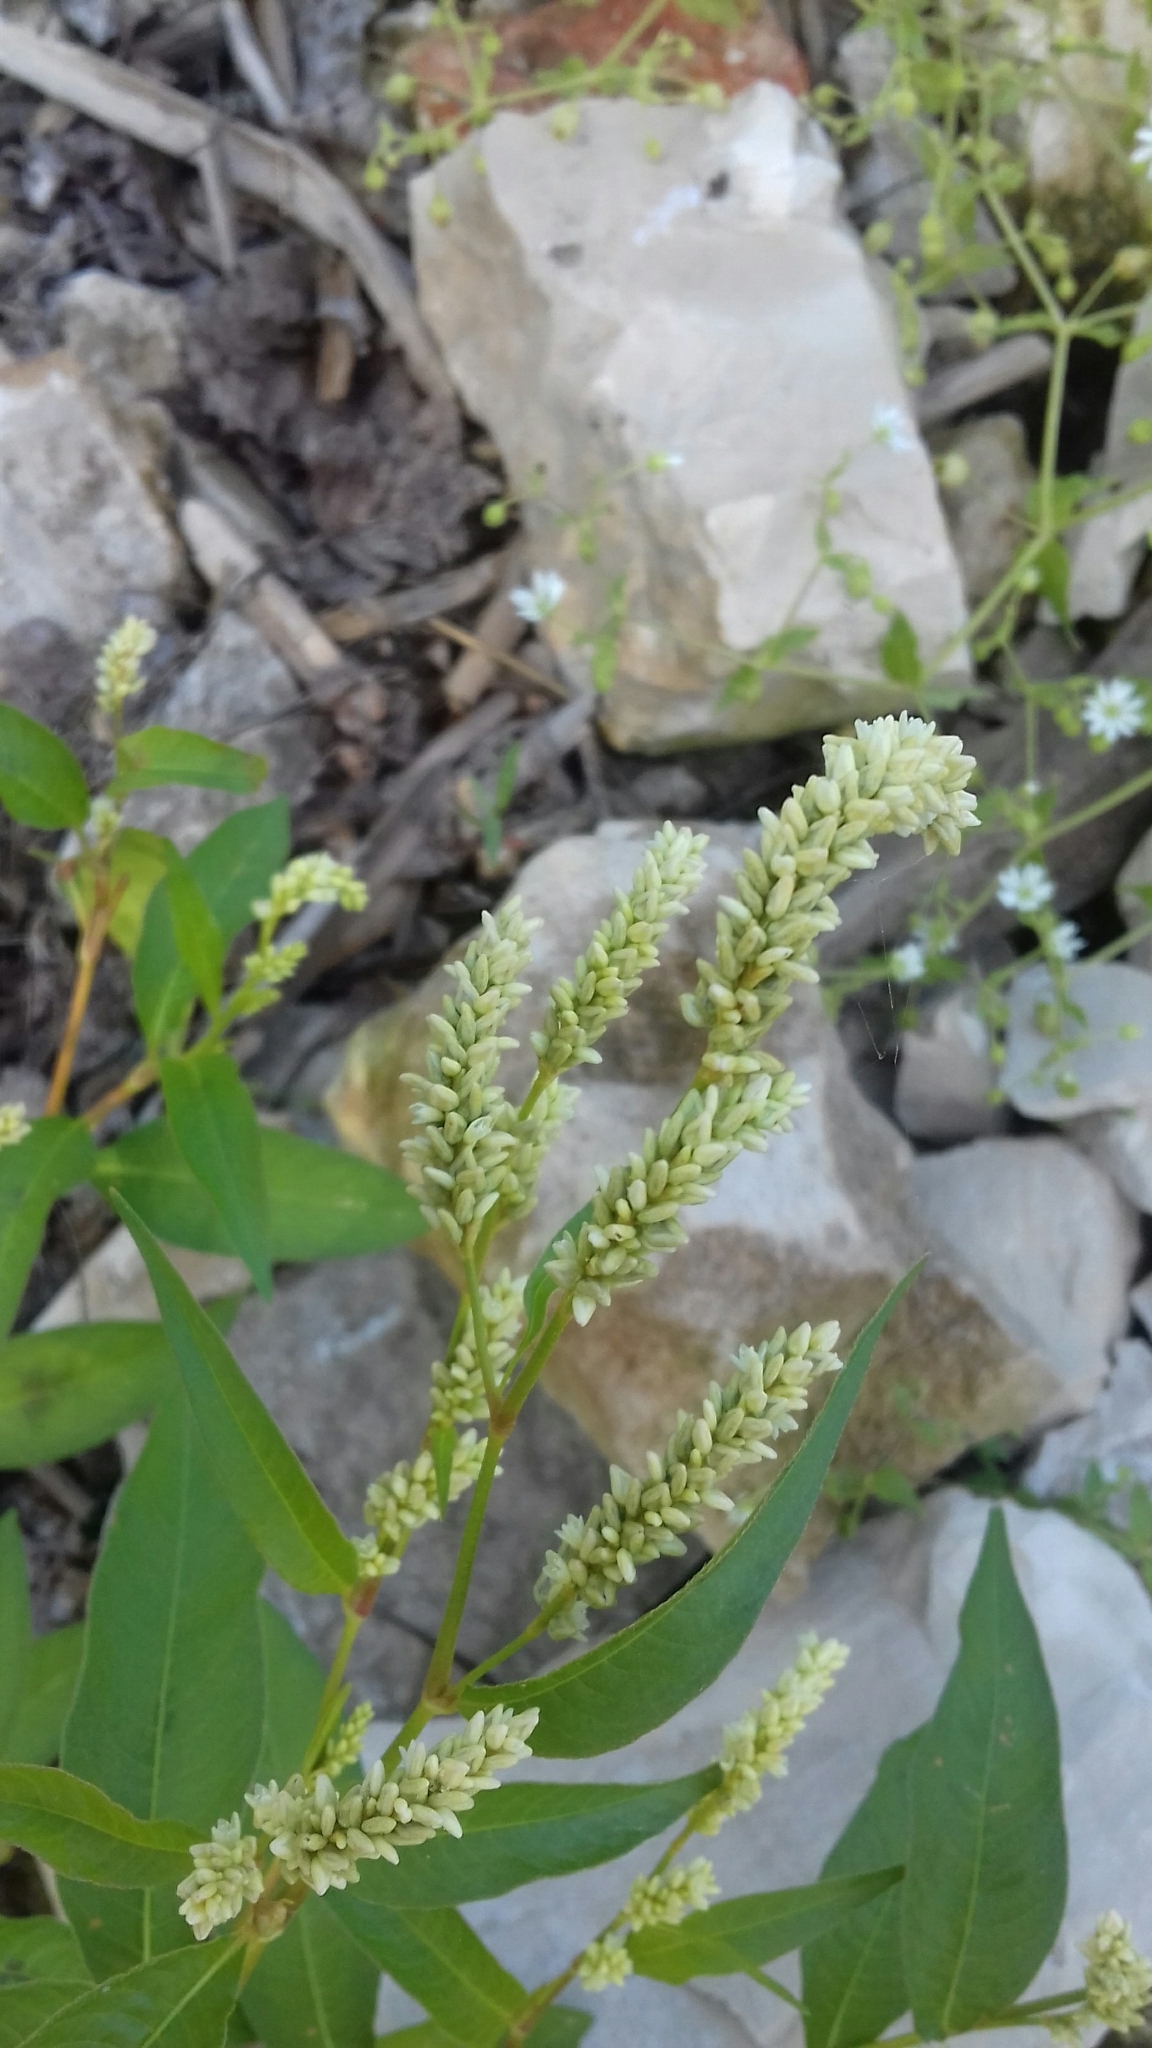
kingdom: Plantae
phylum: Tracheophyta
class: Magnoliopsida
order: Caryophyllales
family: Polygonaceae
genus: Persicaria
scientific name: Persicaria lapathifolia
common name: Curlytop knotweed
